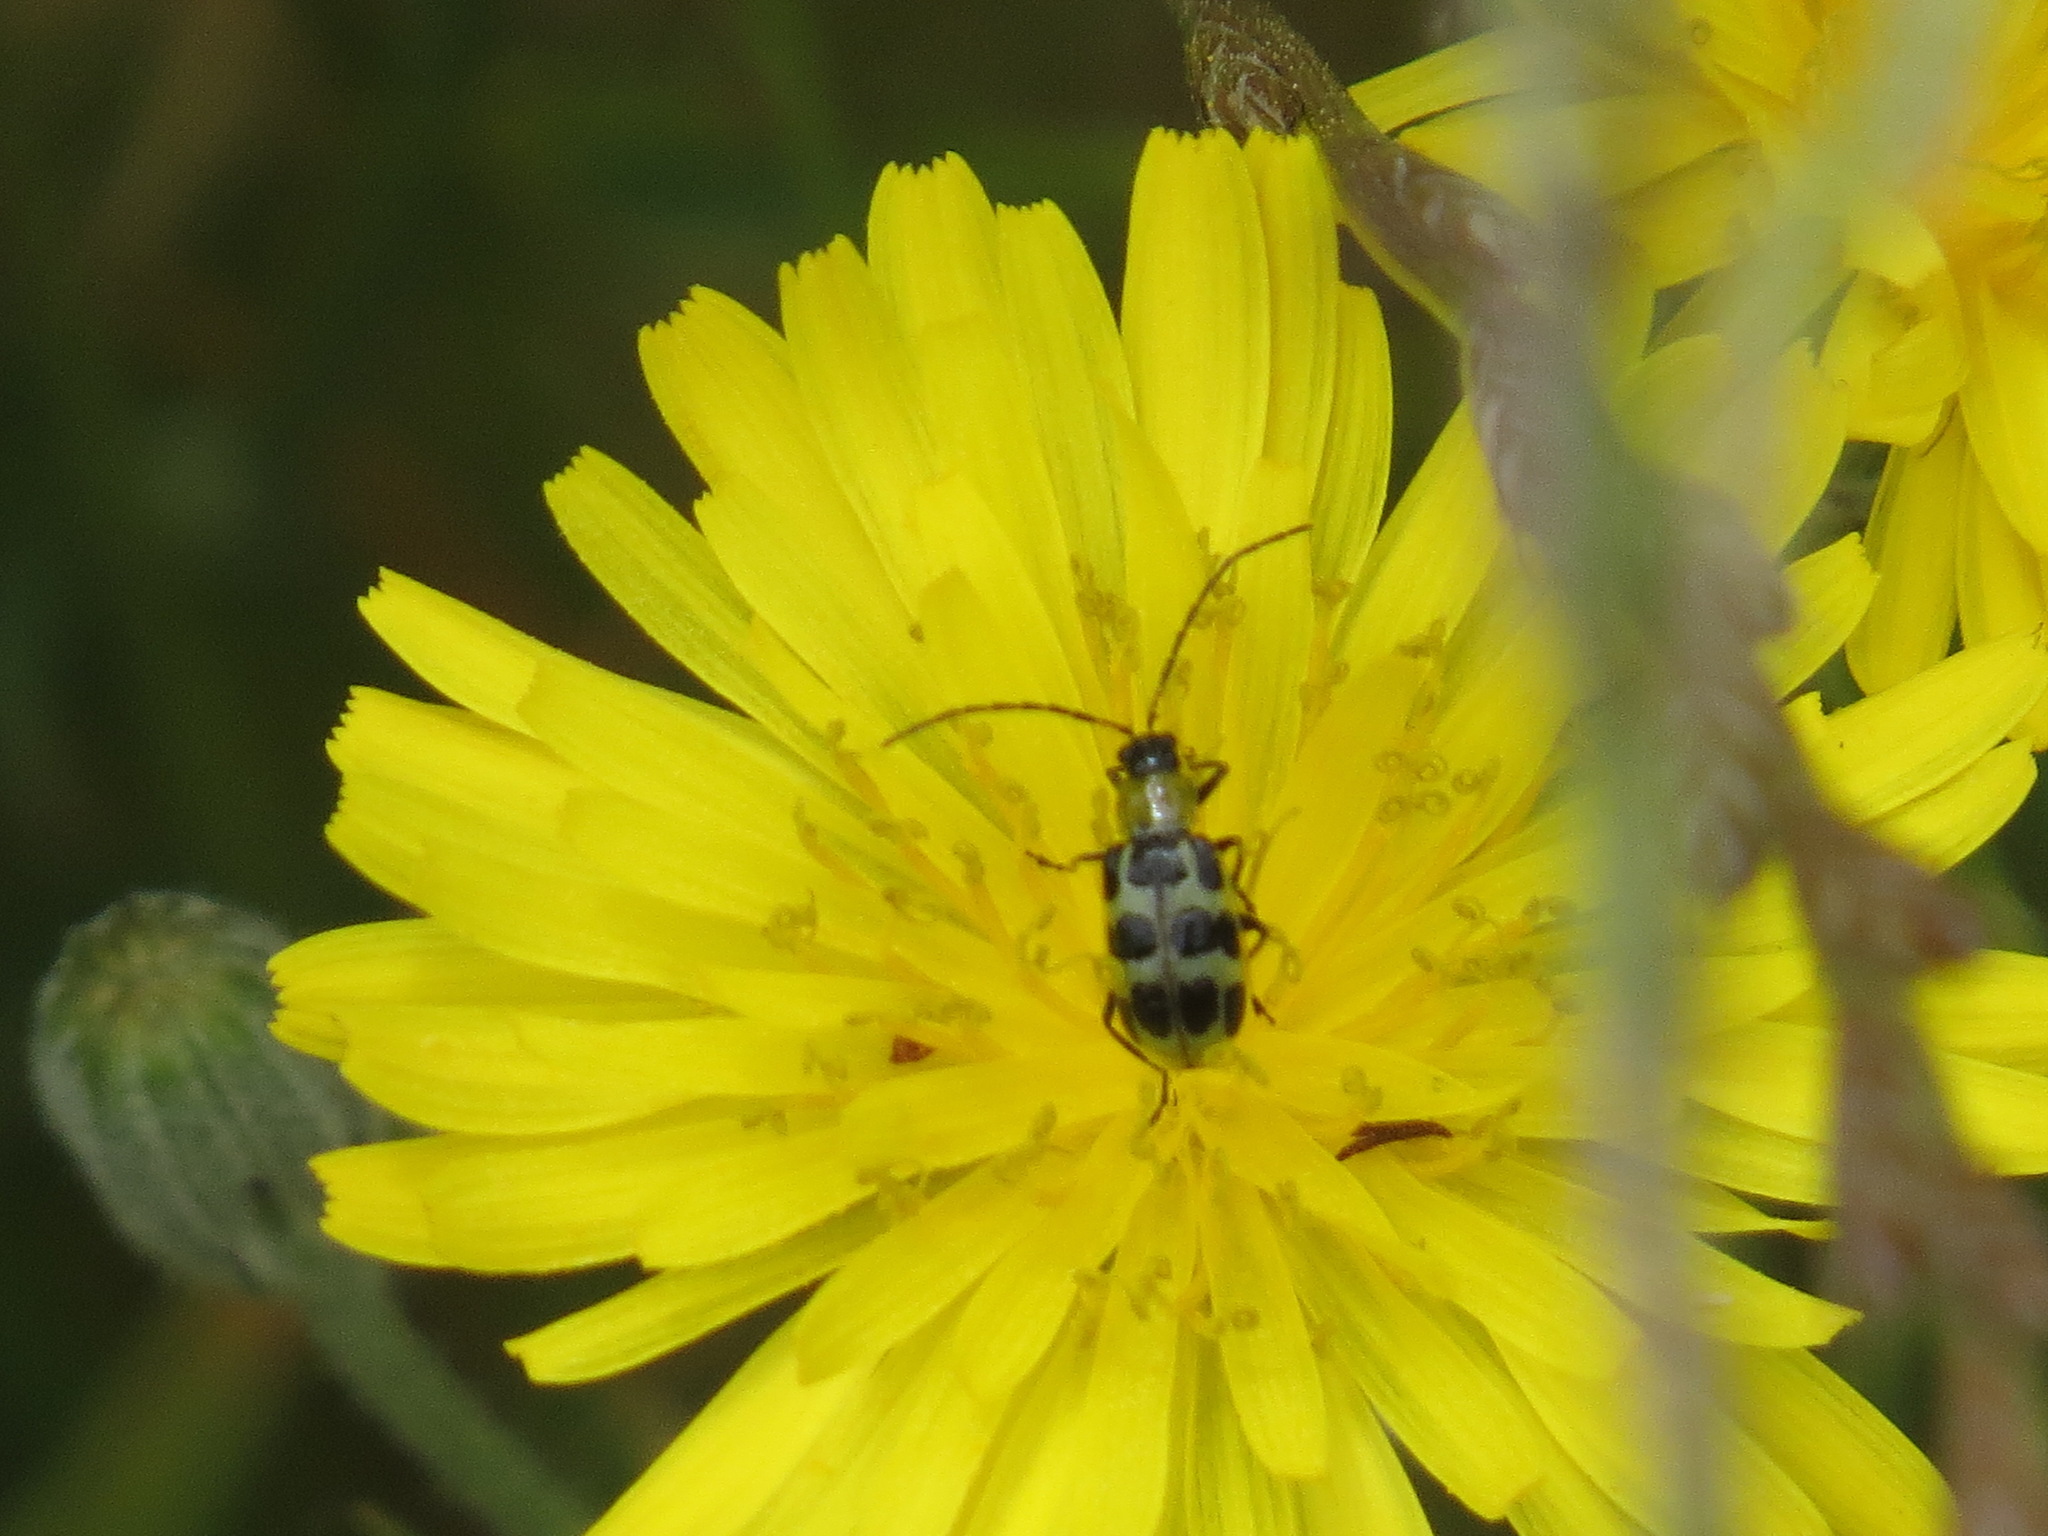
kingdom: Animalia
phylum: Arthropoda
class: Insecta
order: Coleoptera
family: Chrysomelidae
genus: Diabrotica
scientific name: Diabrotica undecimpunctata
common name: Spotted cucumber beetle
